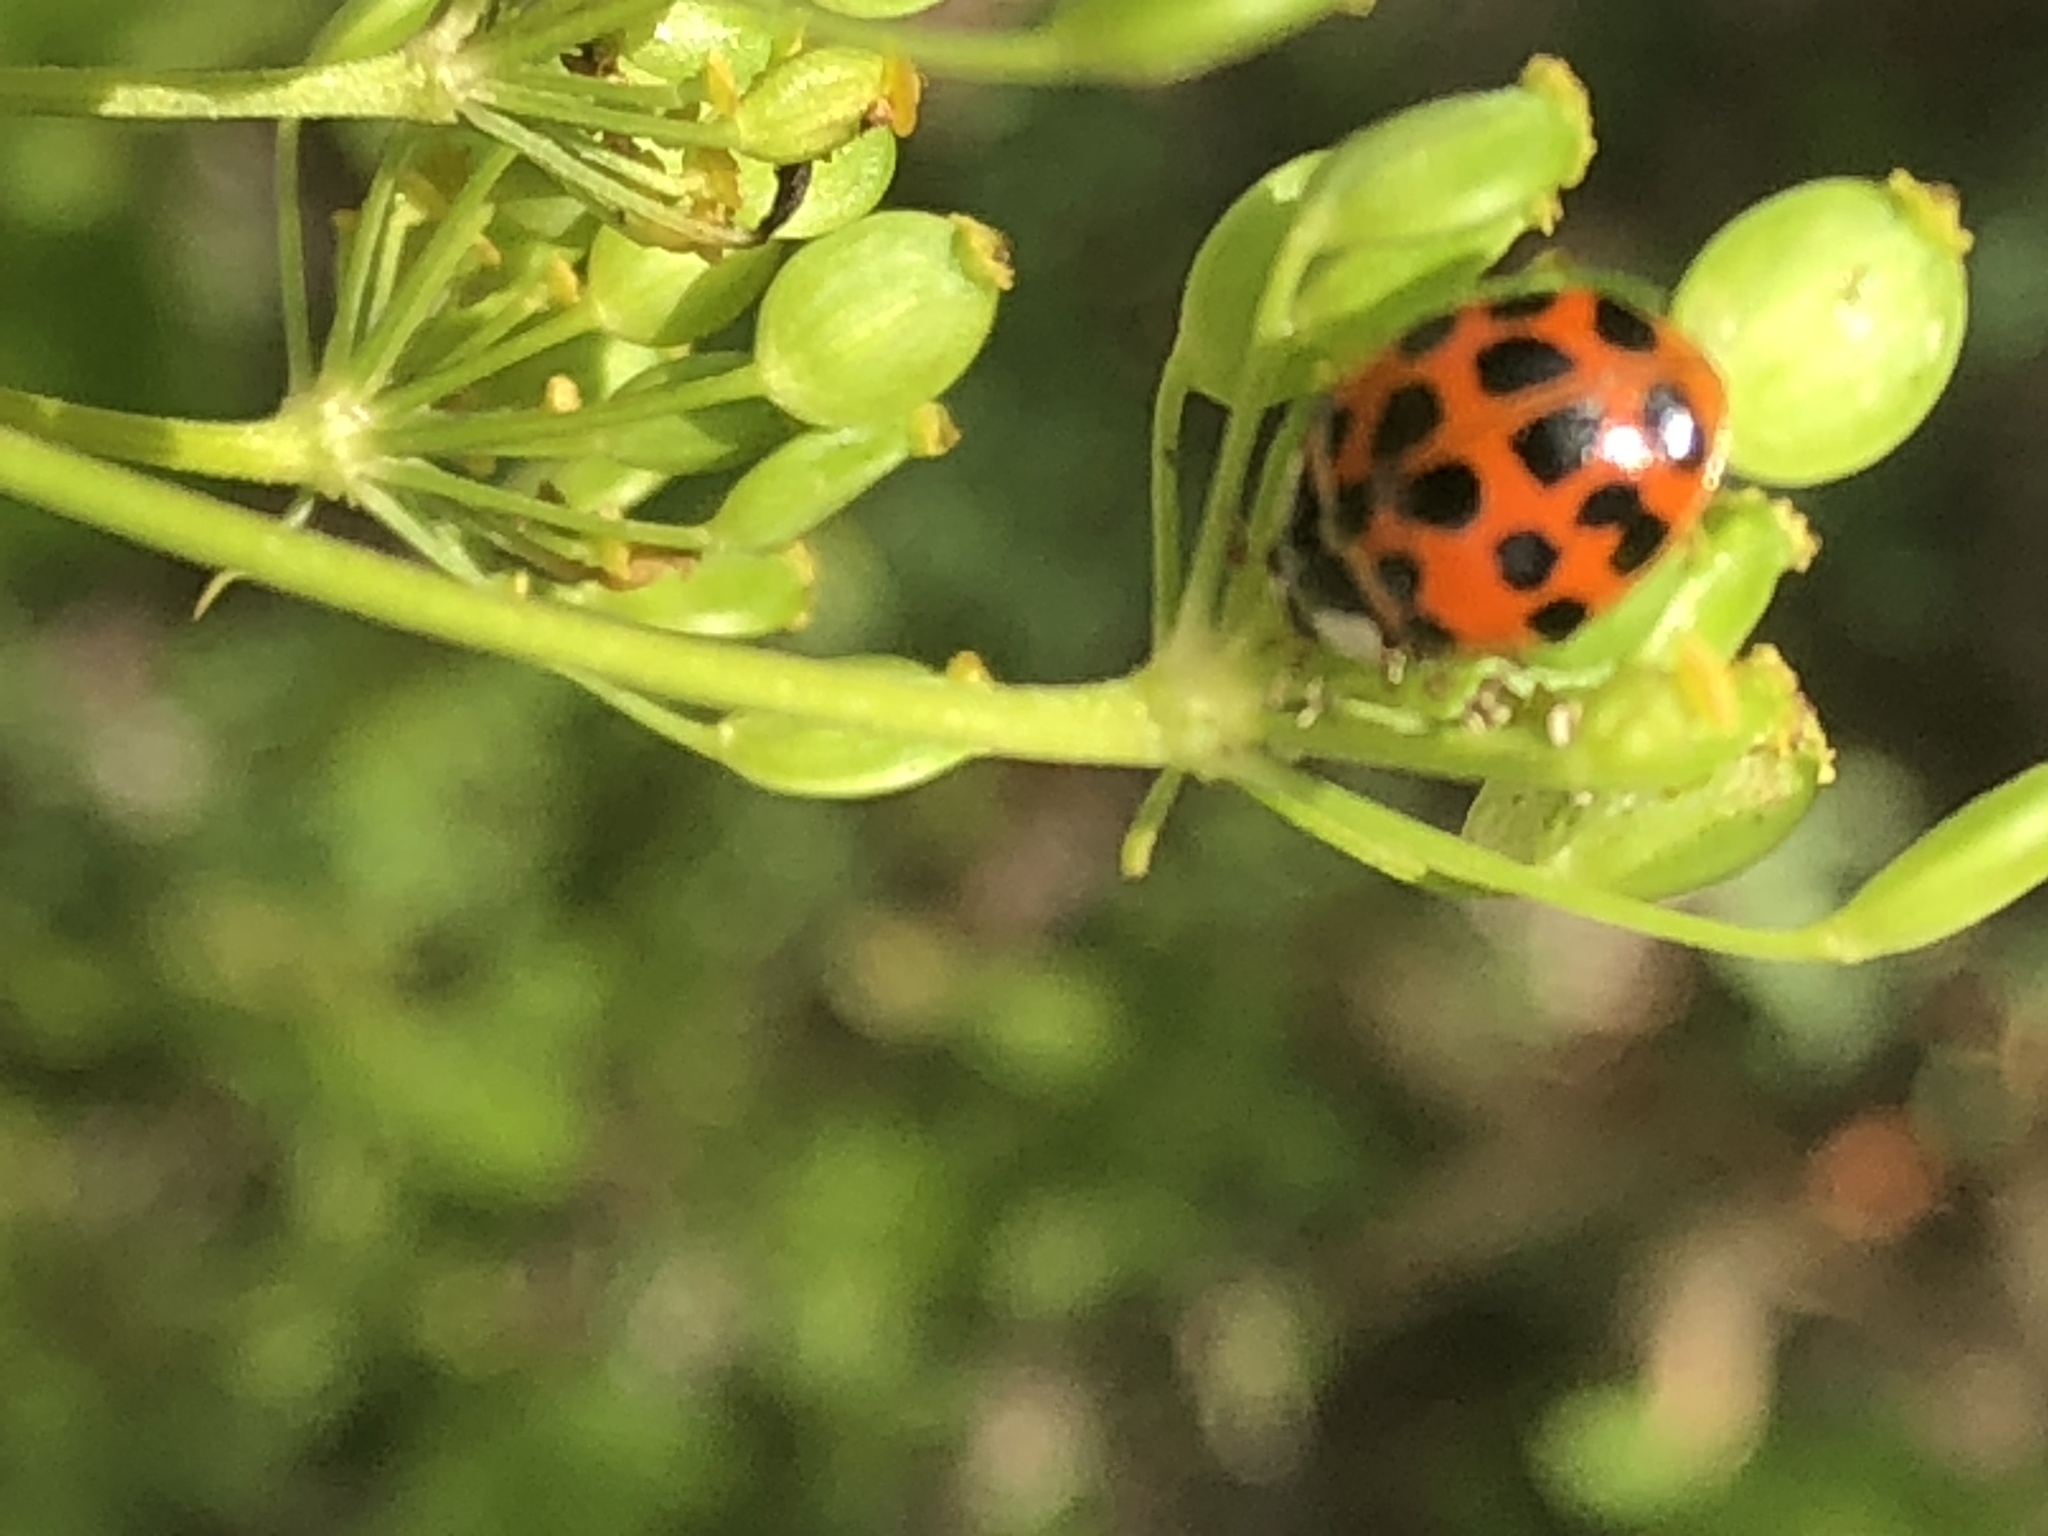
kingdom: Animalia
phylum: Arthropoda
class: Insecta
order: Coleoptera
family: Coccinellidae
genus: Harmonia
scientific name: Harmonia axyridis
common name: Harlequin ladybird
